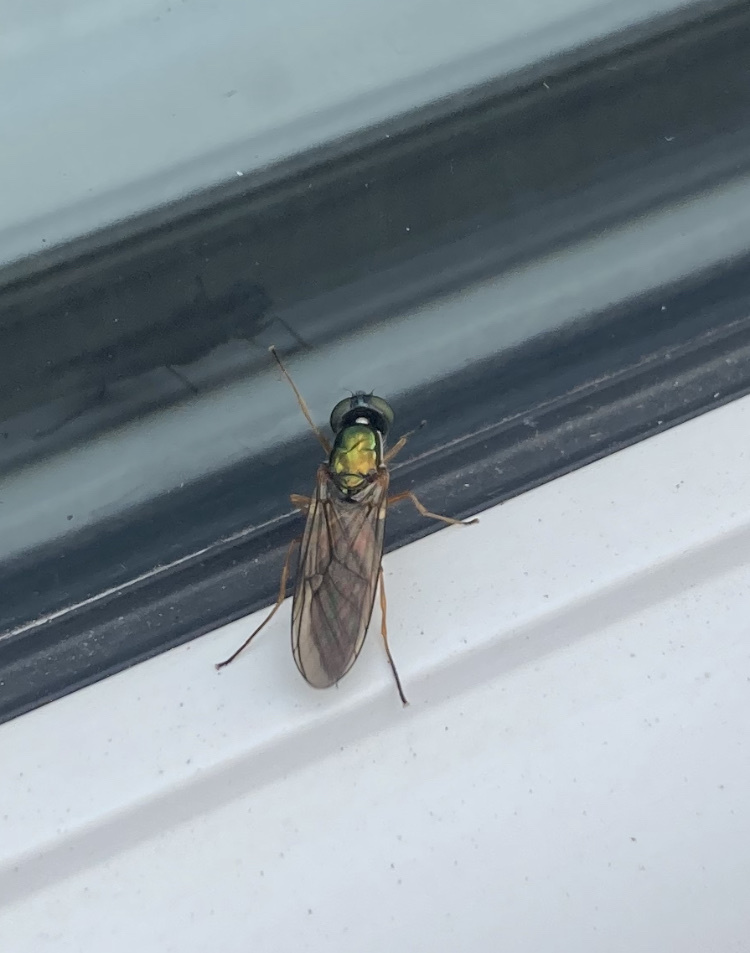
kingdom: Animalia
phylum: Arthropoda
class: Insecta
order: Diptera
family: Stratiomyidae
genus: Sargus
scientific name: Sargus bipunctatus
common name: Twin-spot centurion
